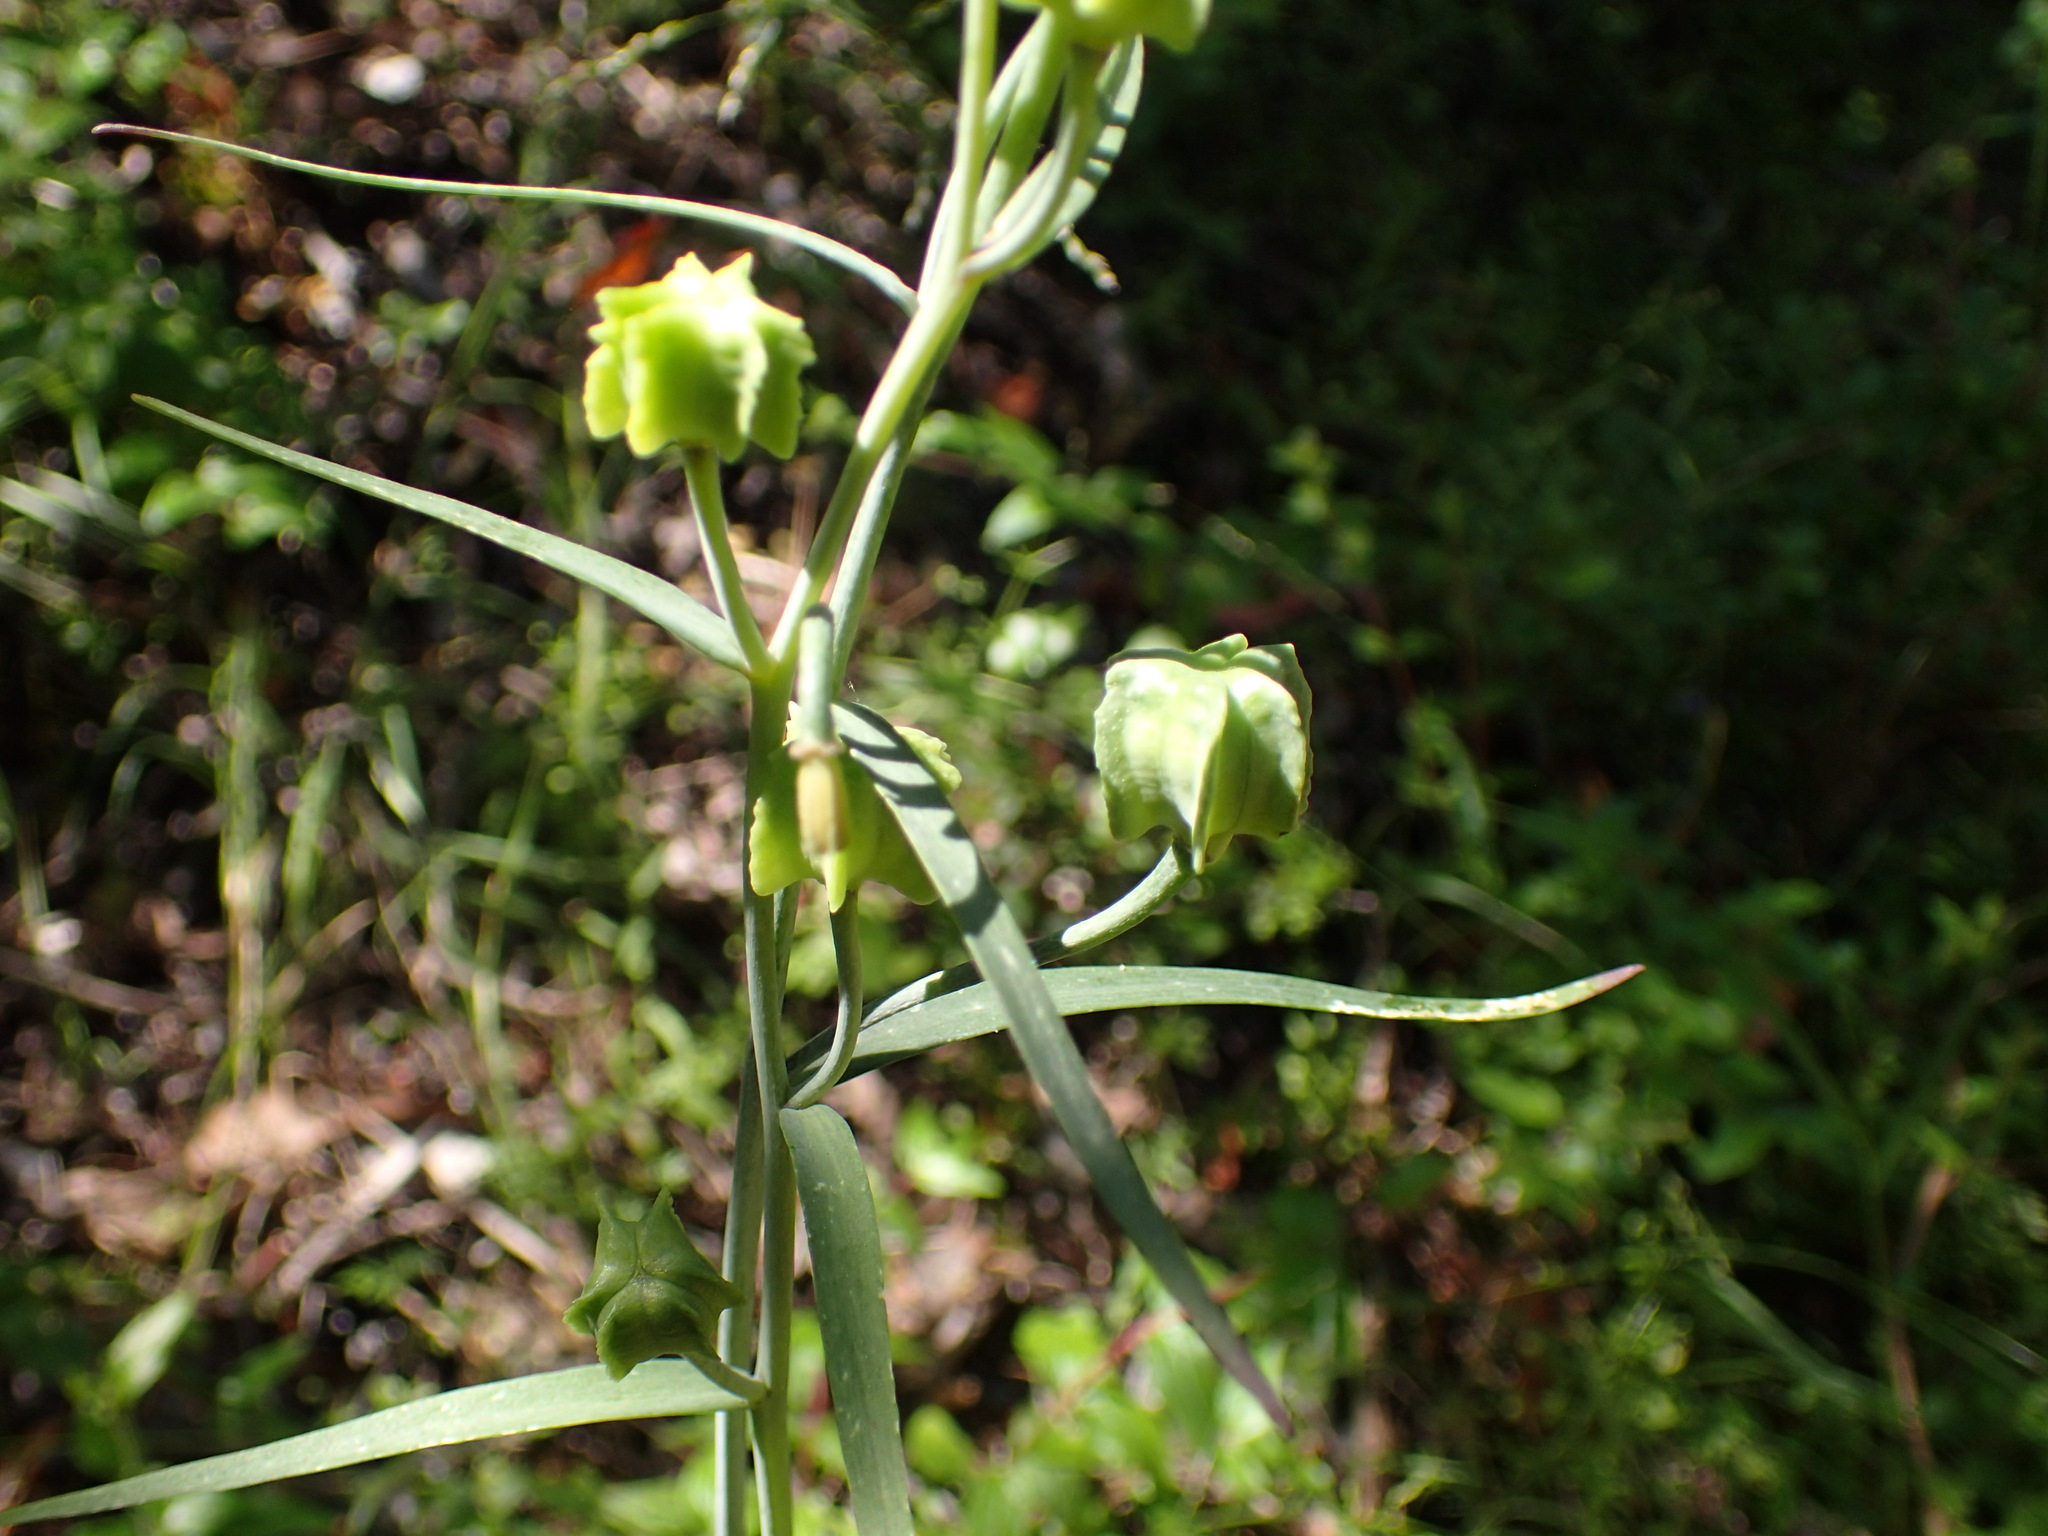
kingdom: Plantae
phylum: Tracheophyta
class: Liliopsida
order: Liliales
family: Liliaceae
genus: Fritillaria
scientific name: Fritillaria ojaiensis
